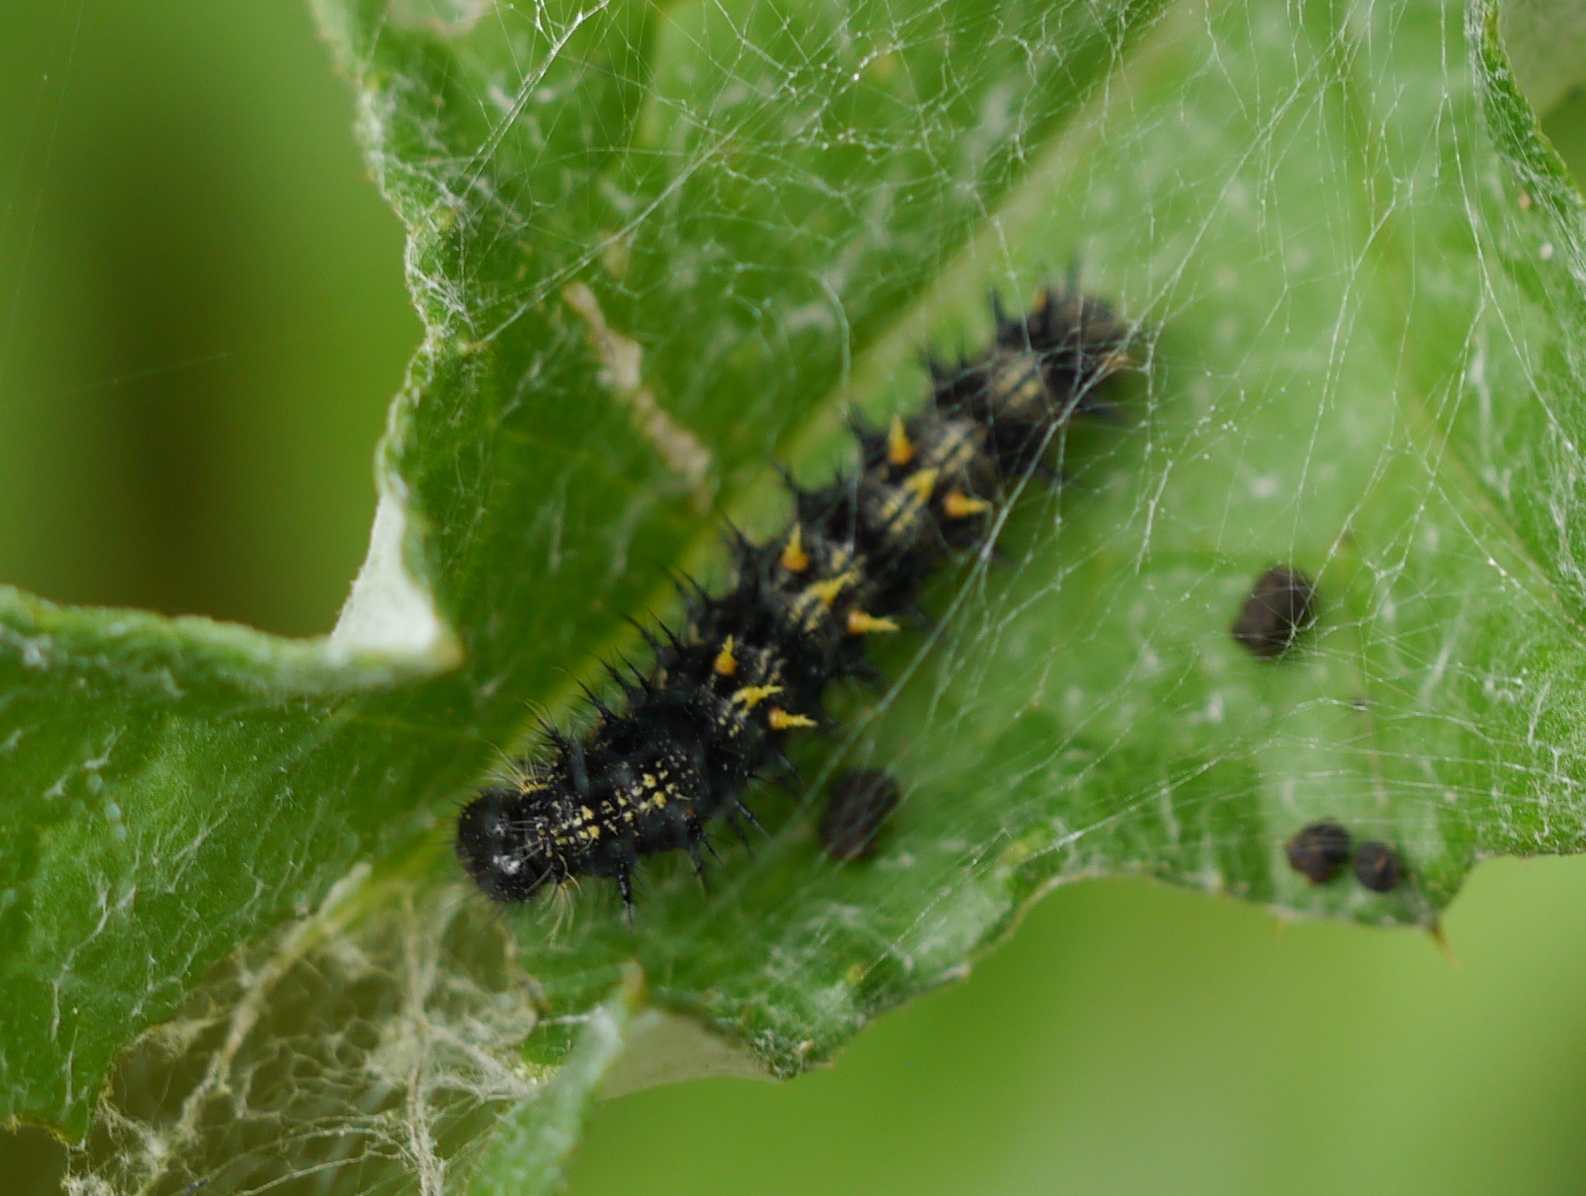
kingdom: Animalia
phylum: Arthropoda
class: Insecta
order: Lepidoptera
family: Nymphalidae
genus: Vanessa
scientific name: Vanessa cardui
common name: Painted lady
